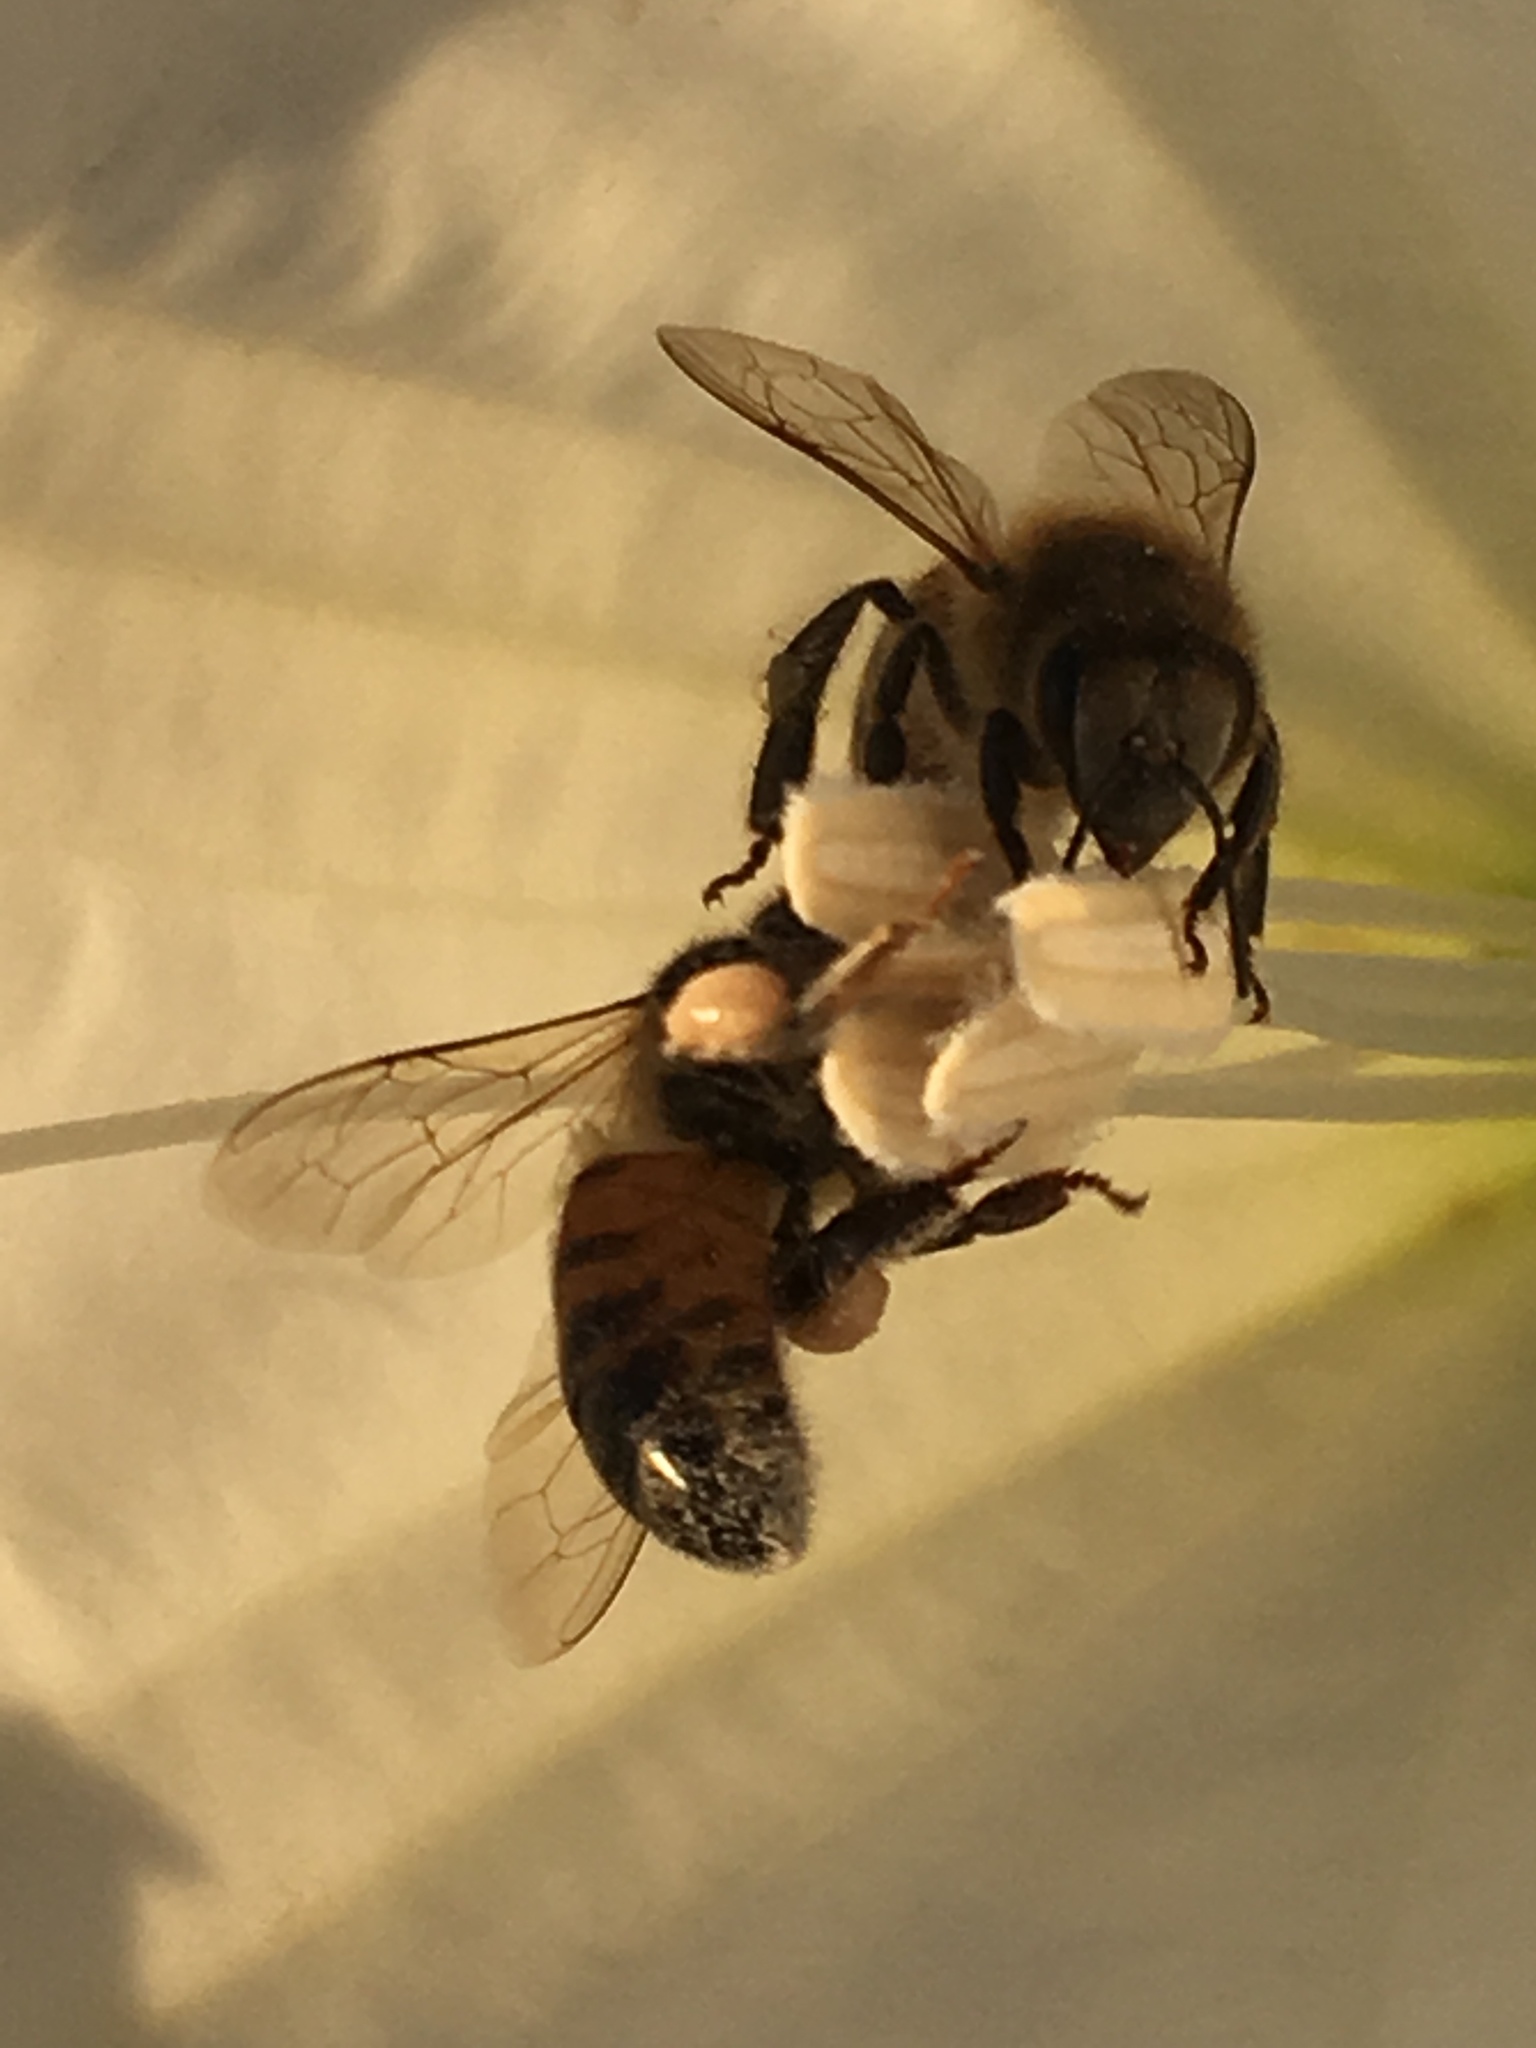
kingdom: Plantae
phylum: Tracheophyta
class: Magnoliopsida
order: Solanales
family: Solanaceae
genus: Datura
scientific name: Datura wrightii
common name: Sacred thorn-apple
